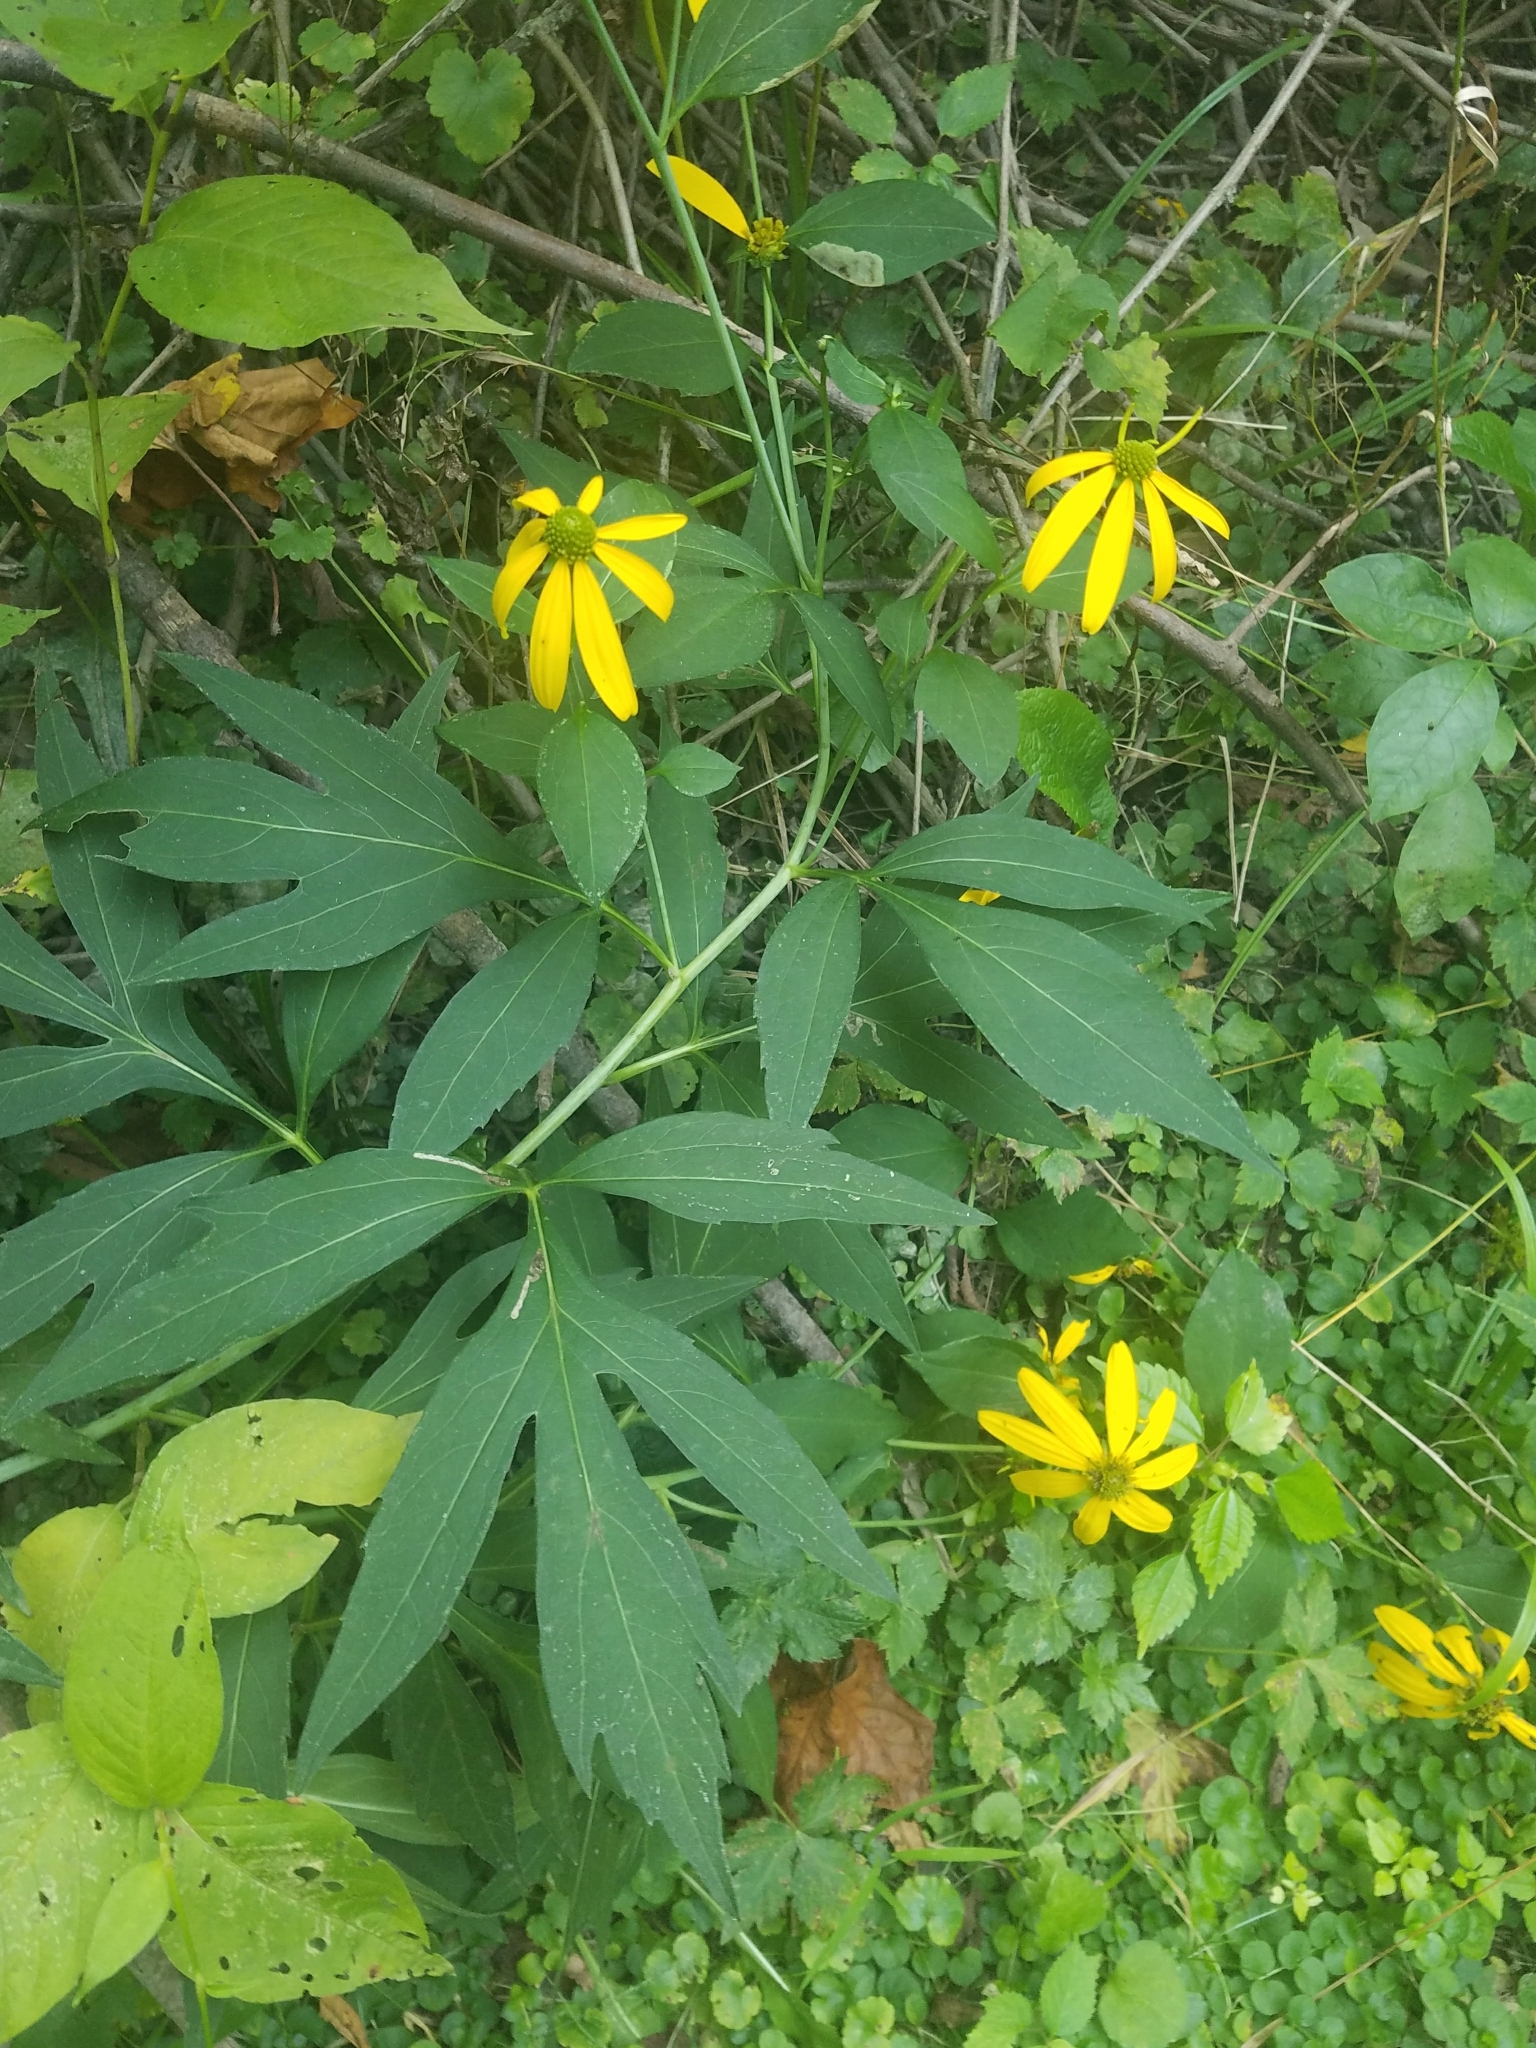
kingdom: Plantae
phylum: Tracheophyta
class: Magnoliopsida
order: Asterales
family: Asteraceae
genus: Rudbeckia
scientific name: Rudbeckia laciniata
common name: Coneflower
